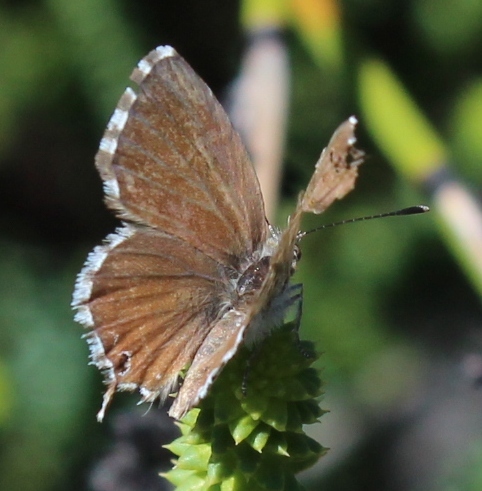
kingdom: Animalia
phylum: Arthropoda
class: Insecta
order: Lepidoptera
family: Lycaenidae
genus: Cacyreus
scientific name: Cacyreus marshalli
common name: Geranium bronze
